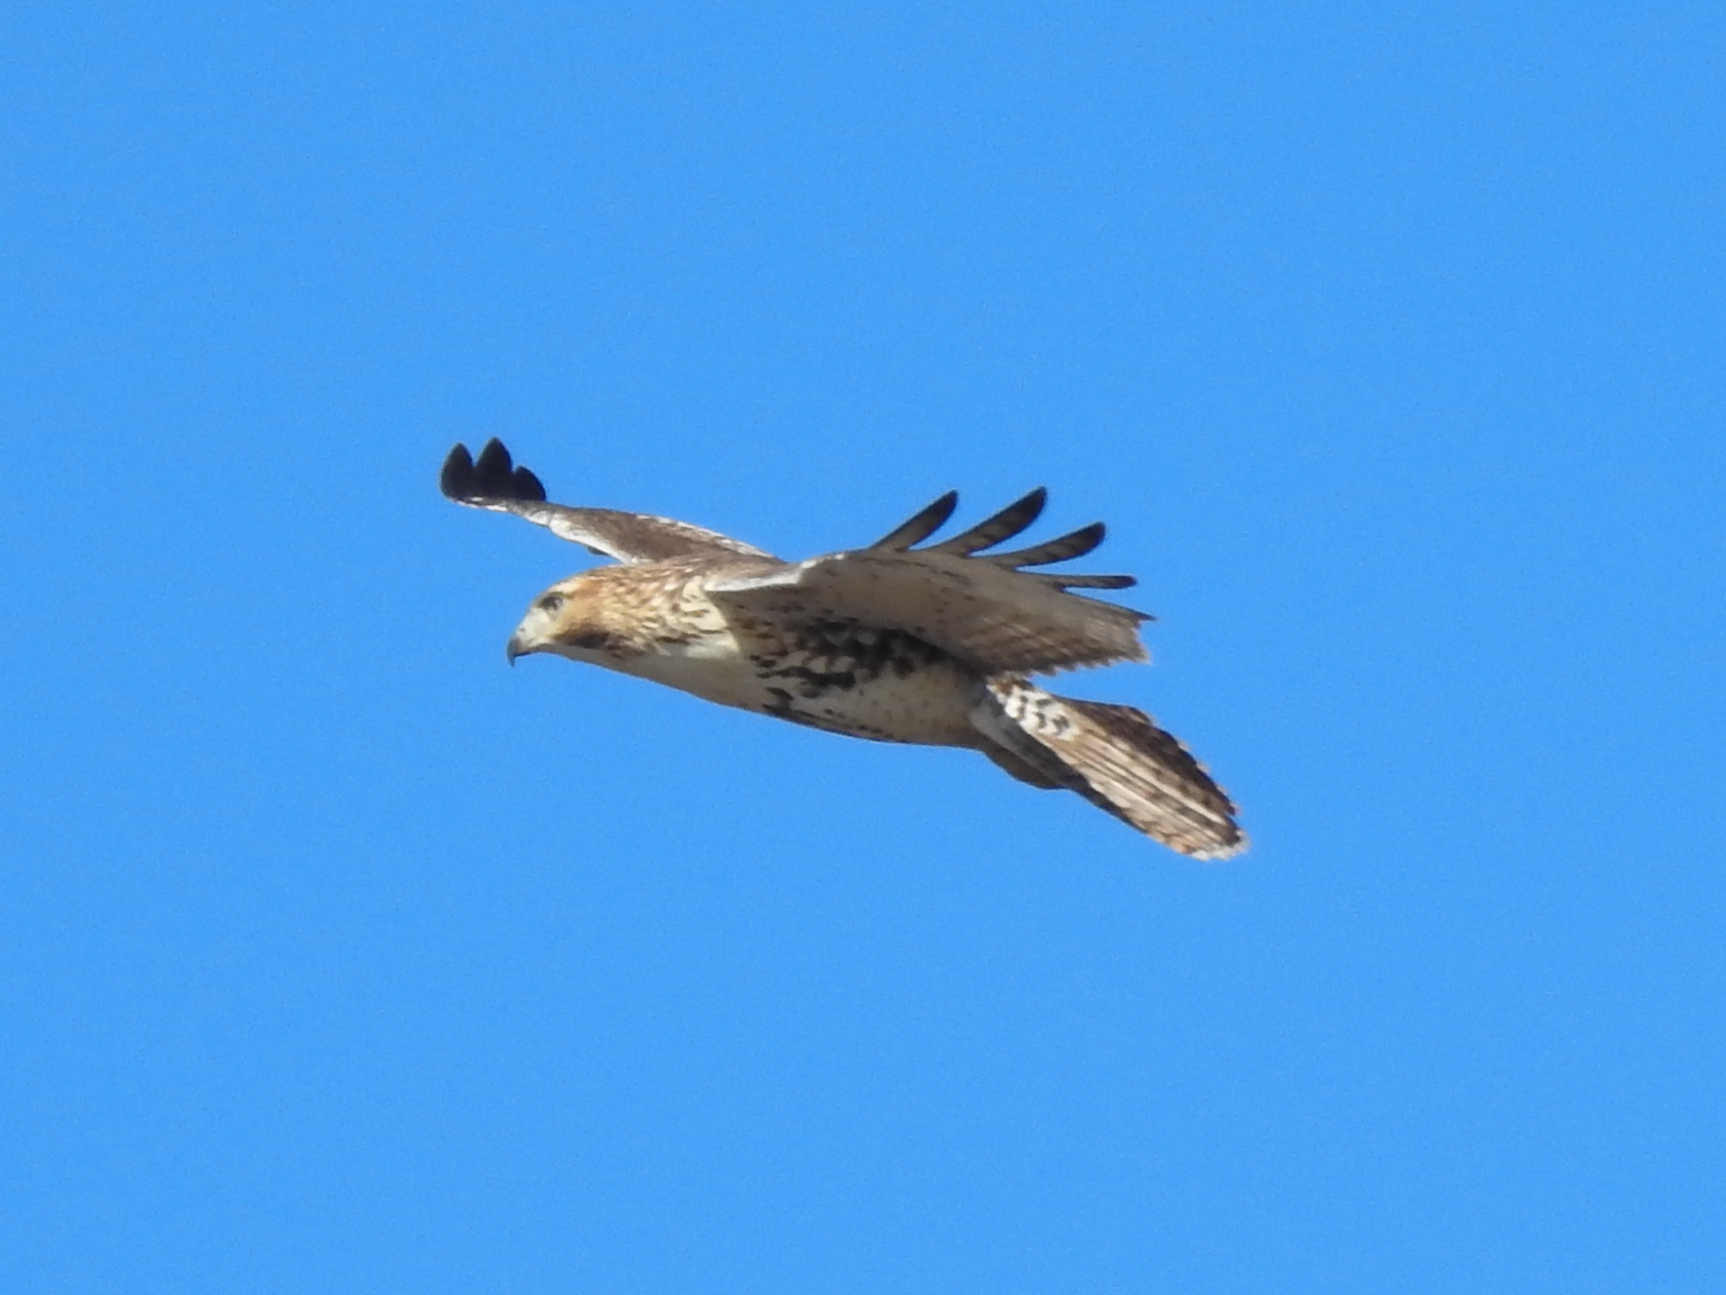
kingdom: Animalia
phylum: Chordata
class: Aves
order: Accipitriformes
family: Accipitridae
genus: Buteo
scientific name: Buteo jamaicensis
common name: Red-tailed hawk
